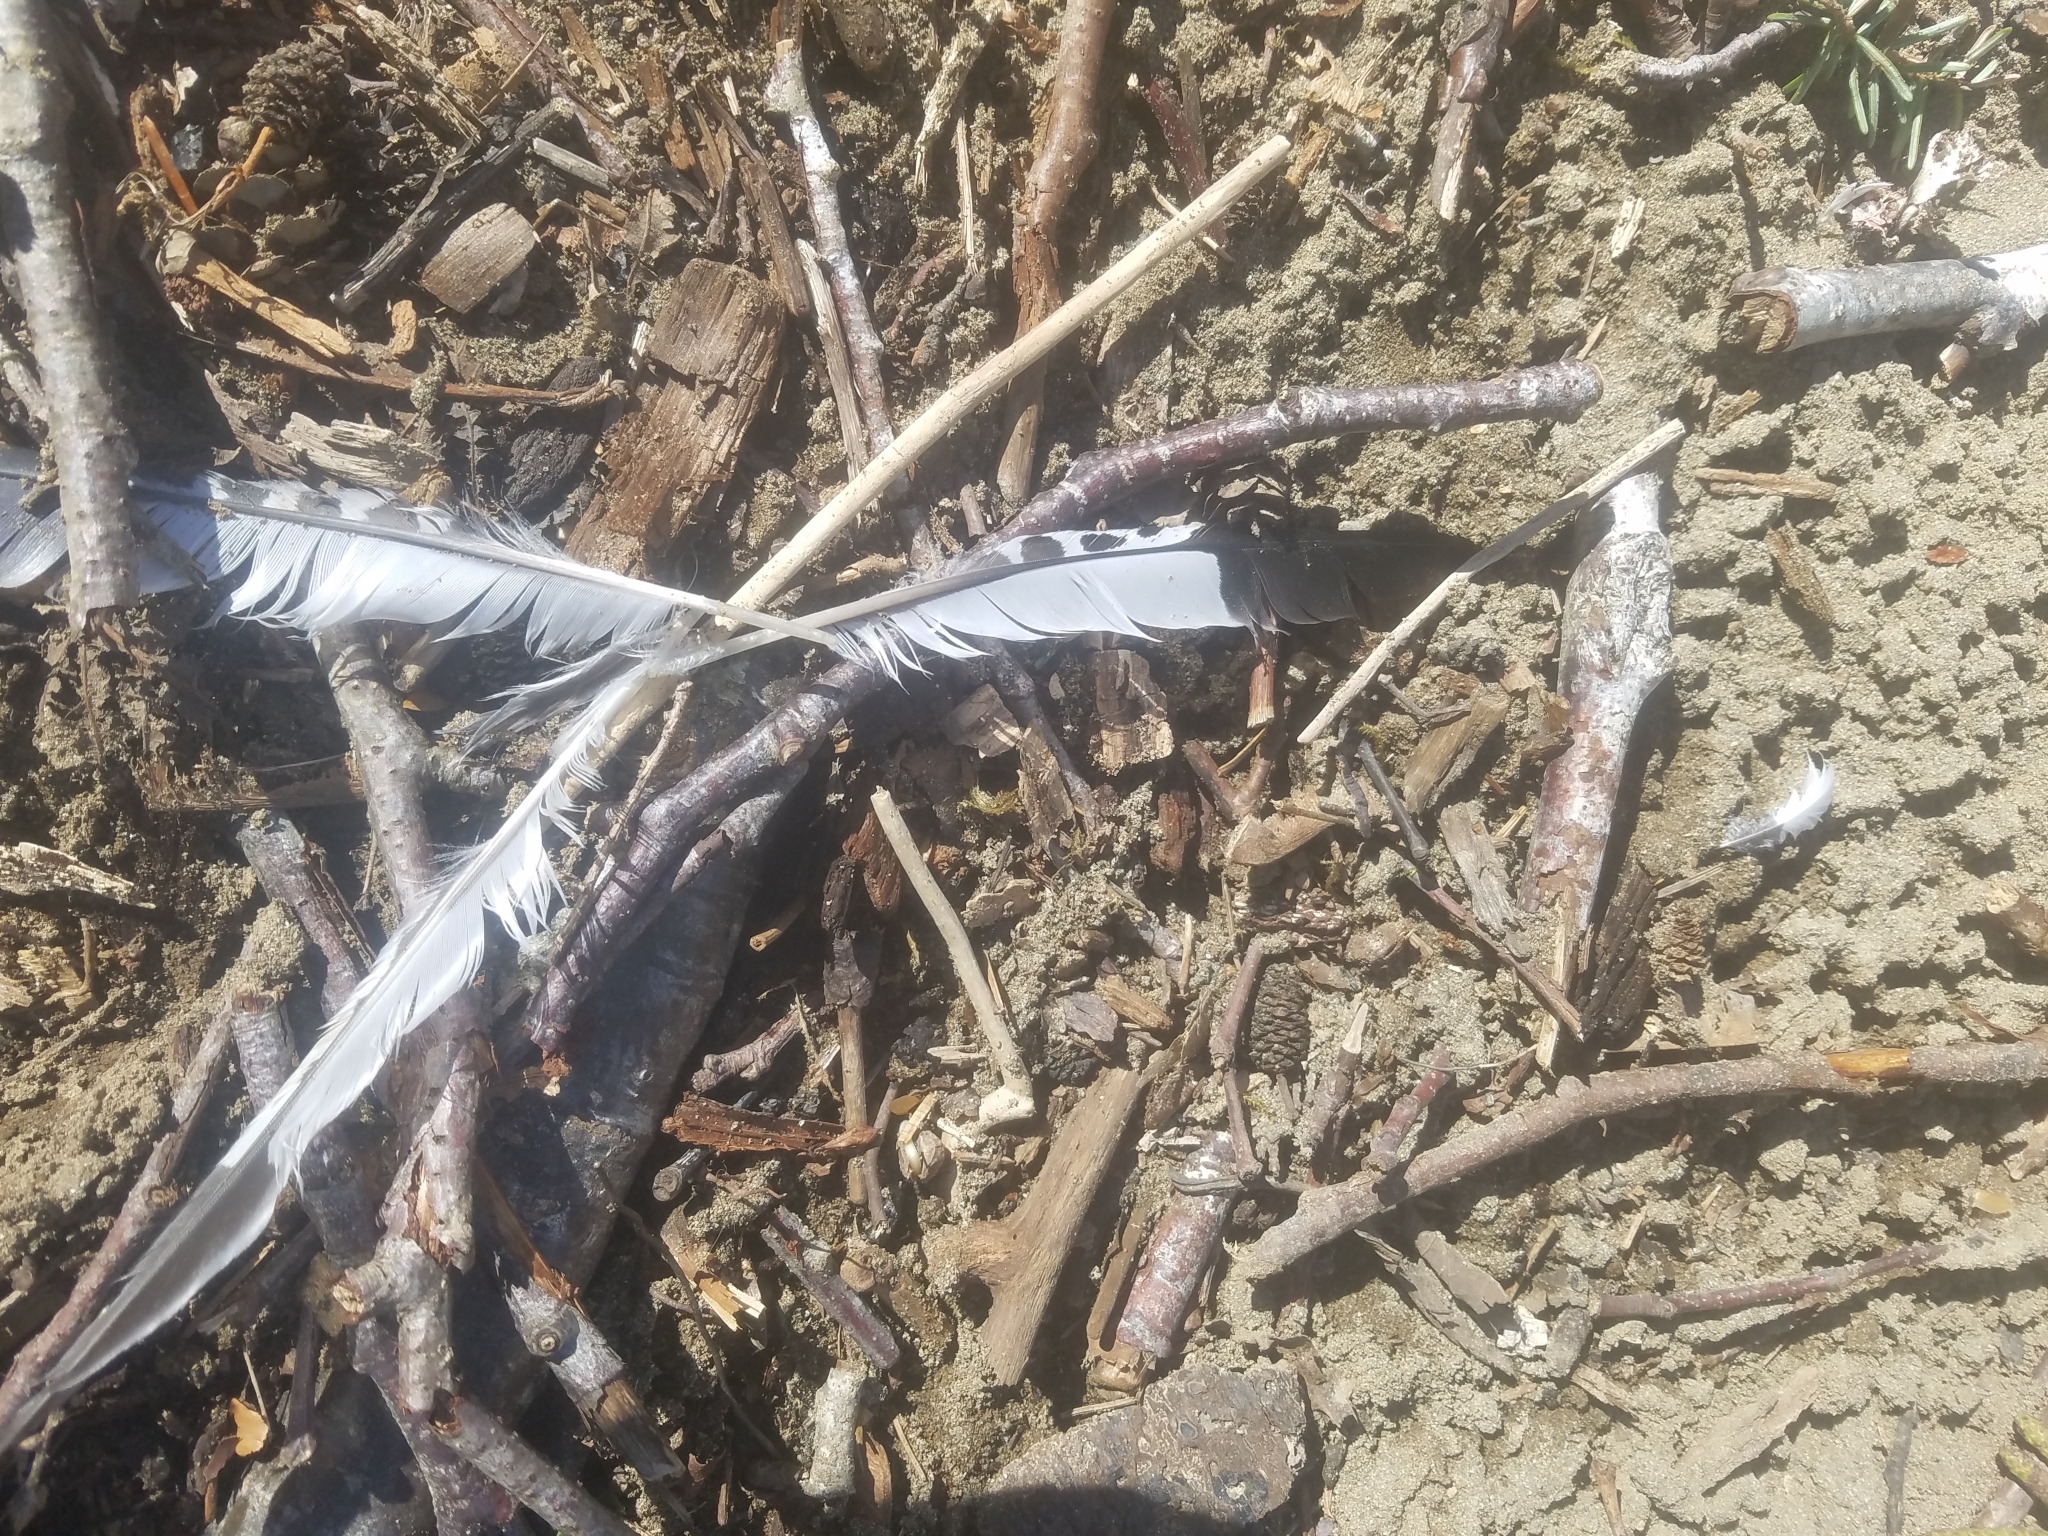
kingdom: Animalia
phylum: Chordata
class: Aves
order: Coraciiformes
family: Alcedinidae
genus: Megaceryle
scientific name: Megaceryle alcyon
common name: Belted kingfisher
